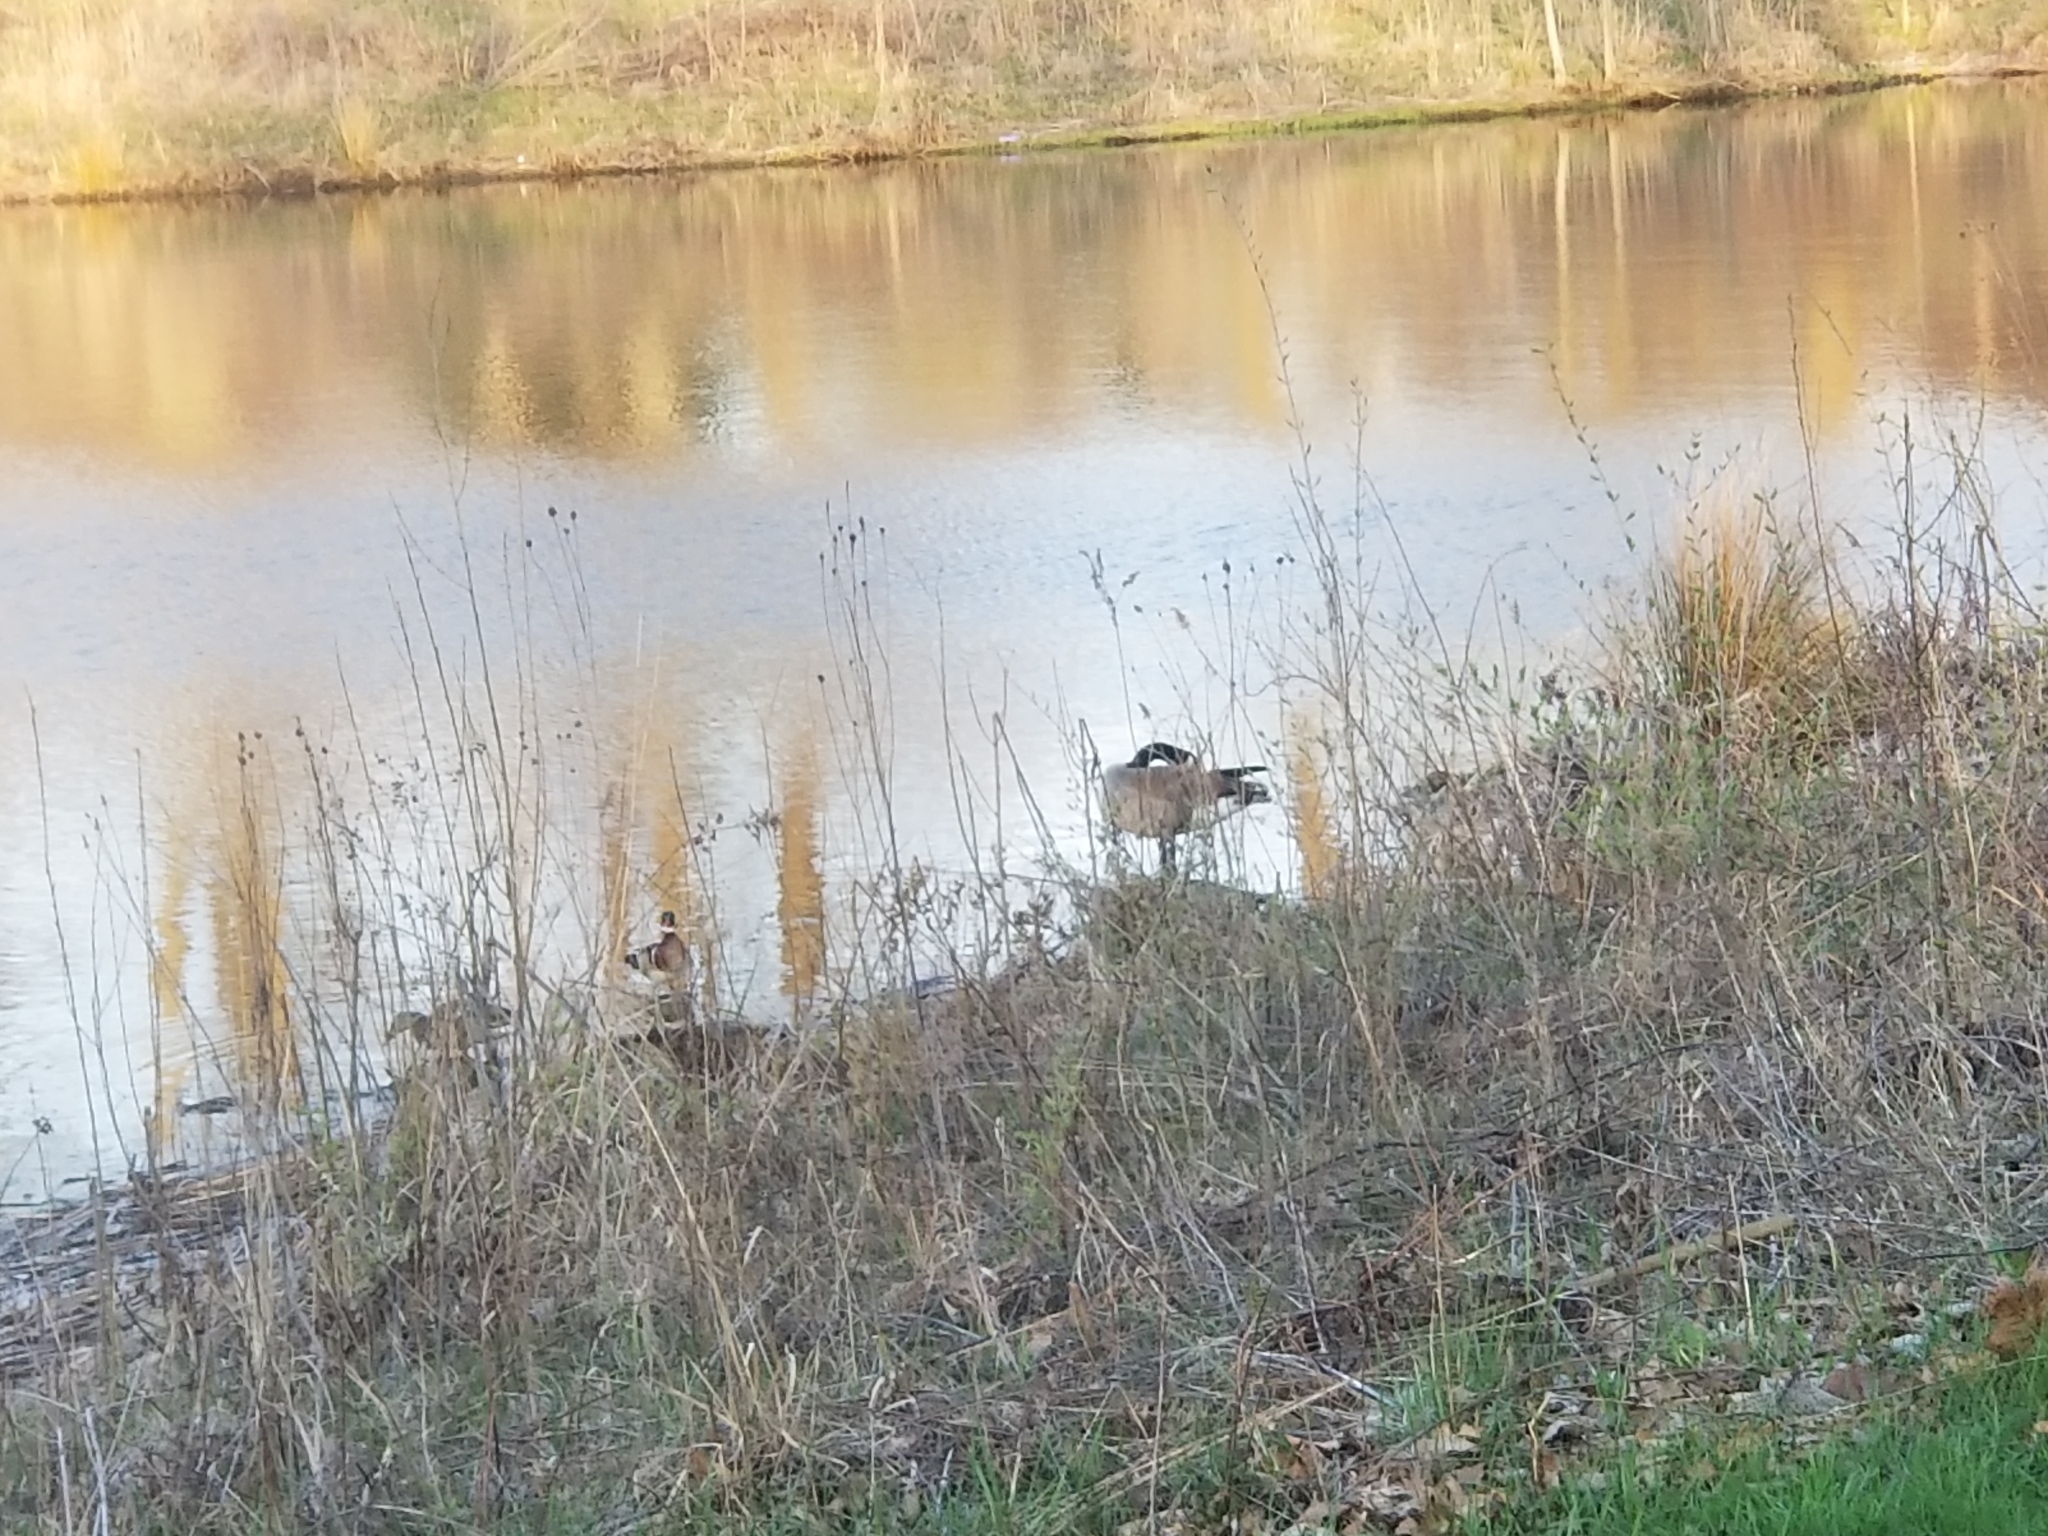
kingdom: Animalia
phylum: Chordata
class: Aves
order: Anseriformes
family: Anatidae
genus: Branta
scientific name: Branta canadensis
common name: Canada goose
